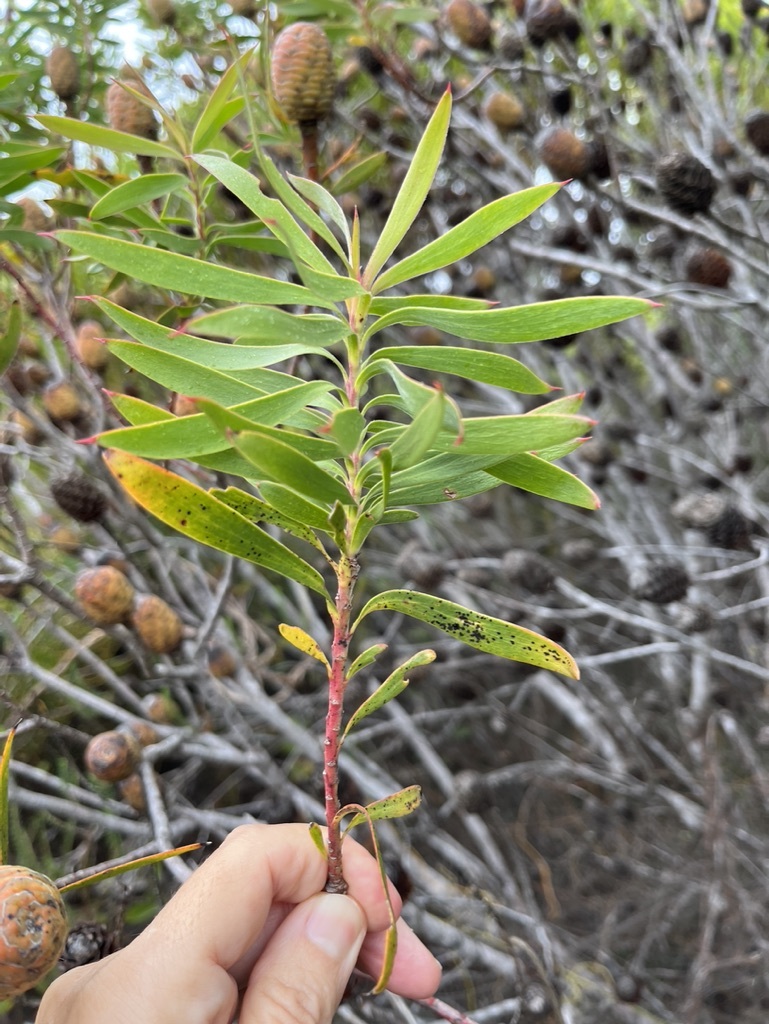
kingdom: Plantae
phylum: Tracheophyta
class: Magnoliopsida
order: Proteales
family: Proteaceae
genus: Leucadendron
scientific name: Leucadendron coniferum
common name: Dune conebush
